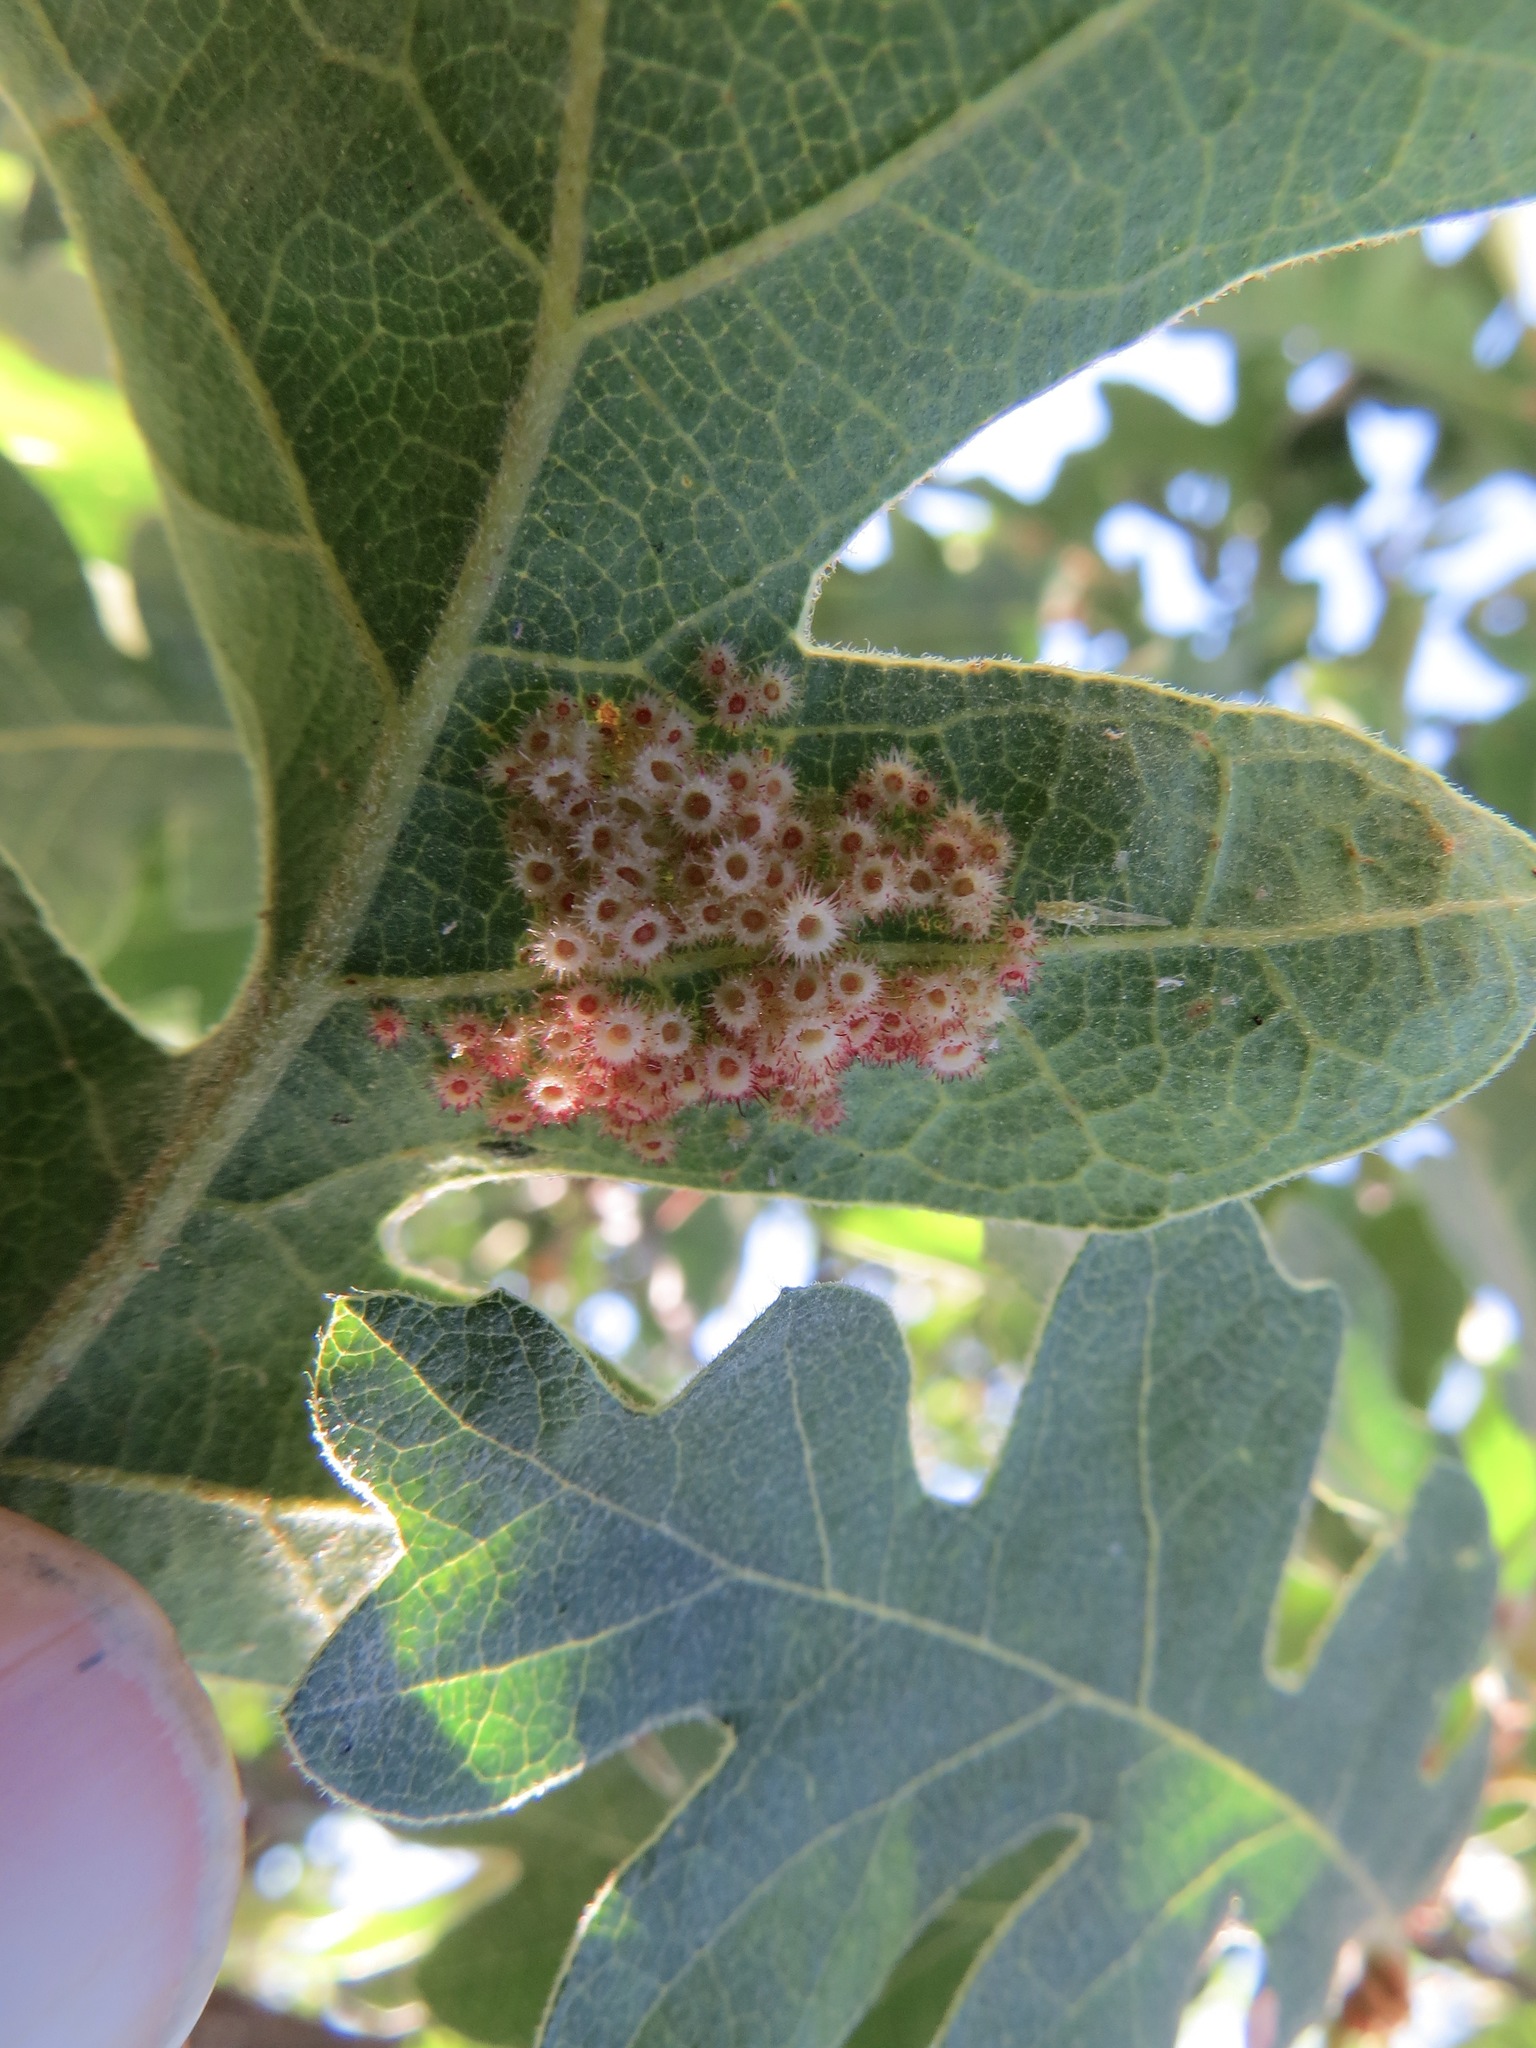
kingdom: Animalia
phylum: Arthropoda
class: Insecta
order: Hymenoptera
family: Cynipidae
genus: Andricus
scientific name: Andricus
